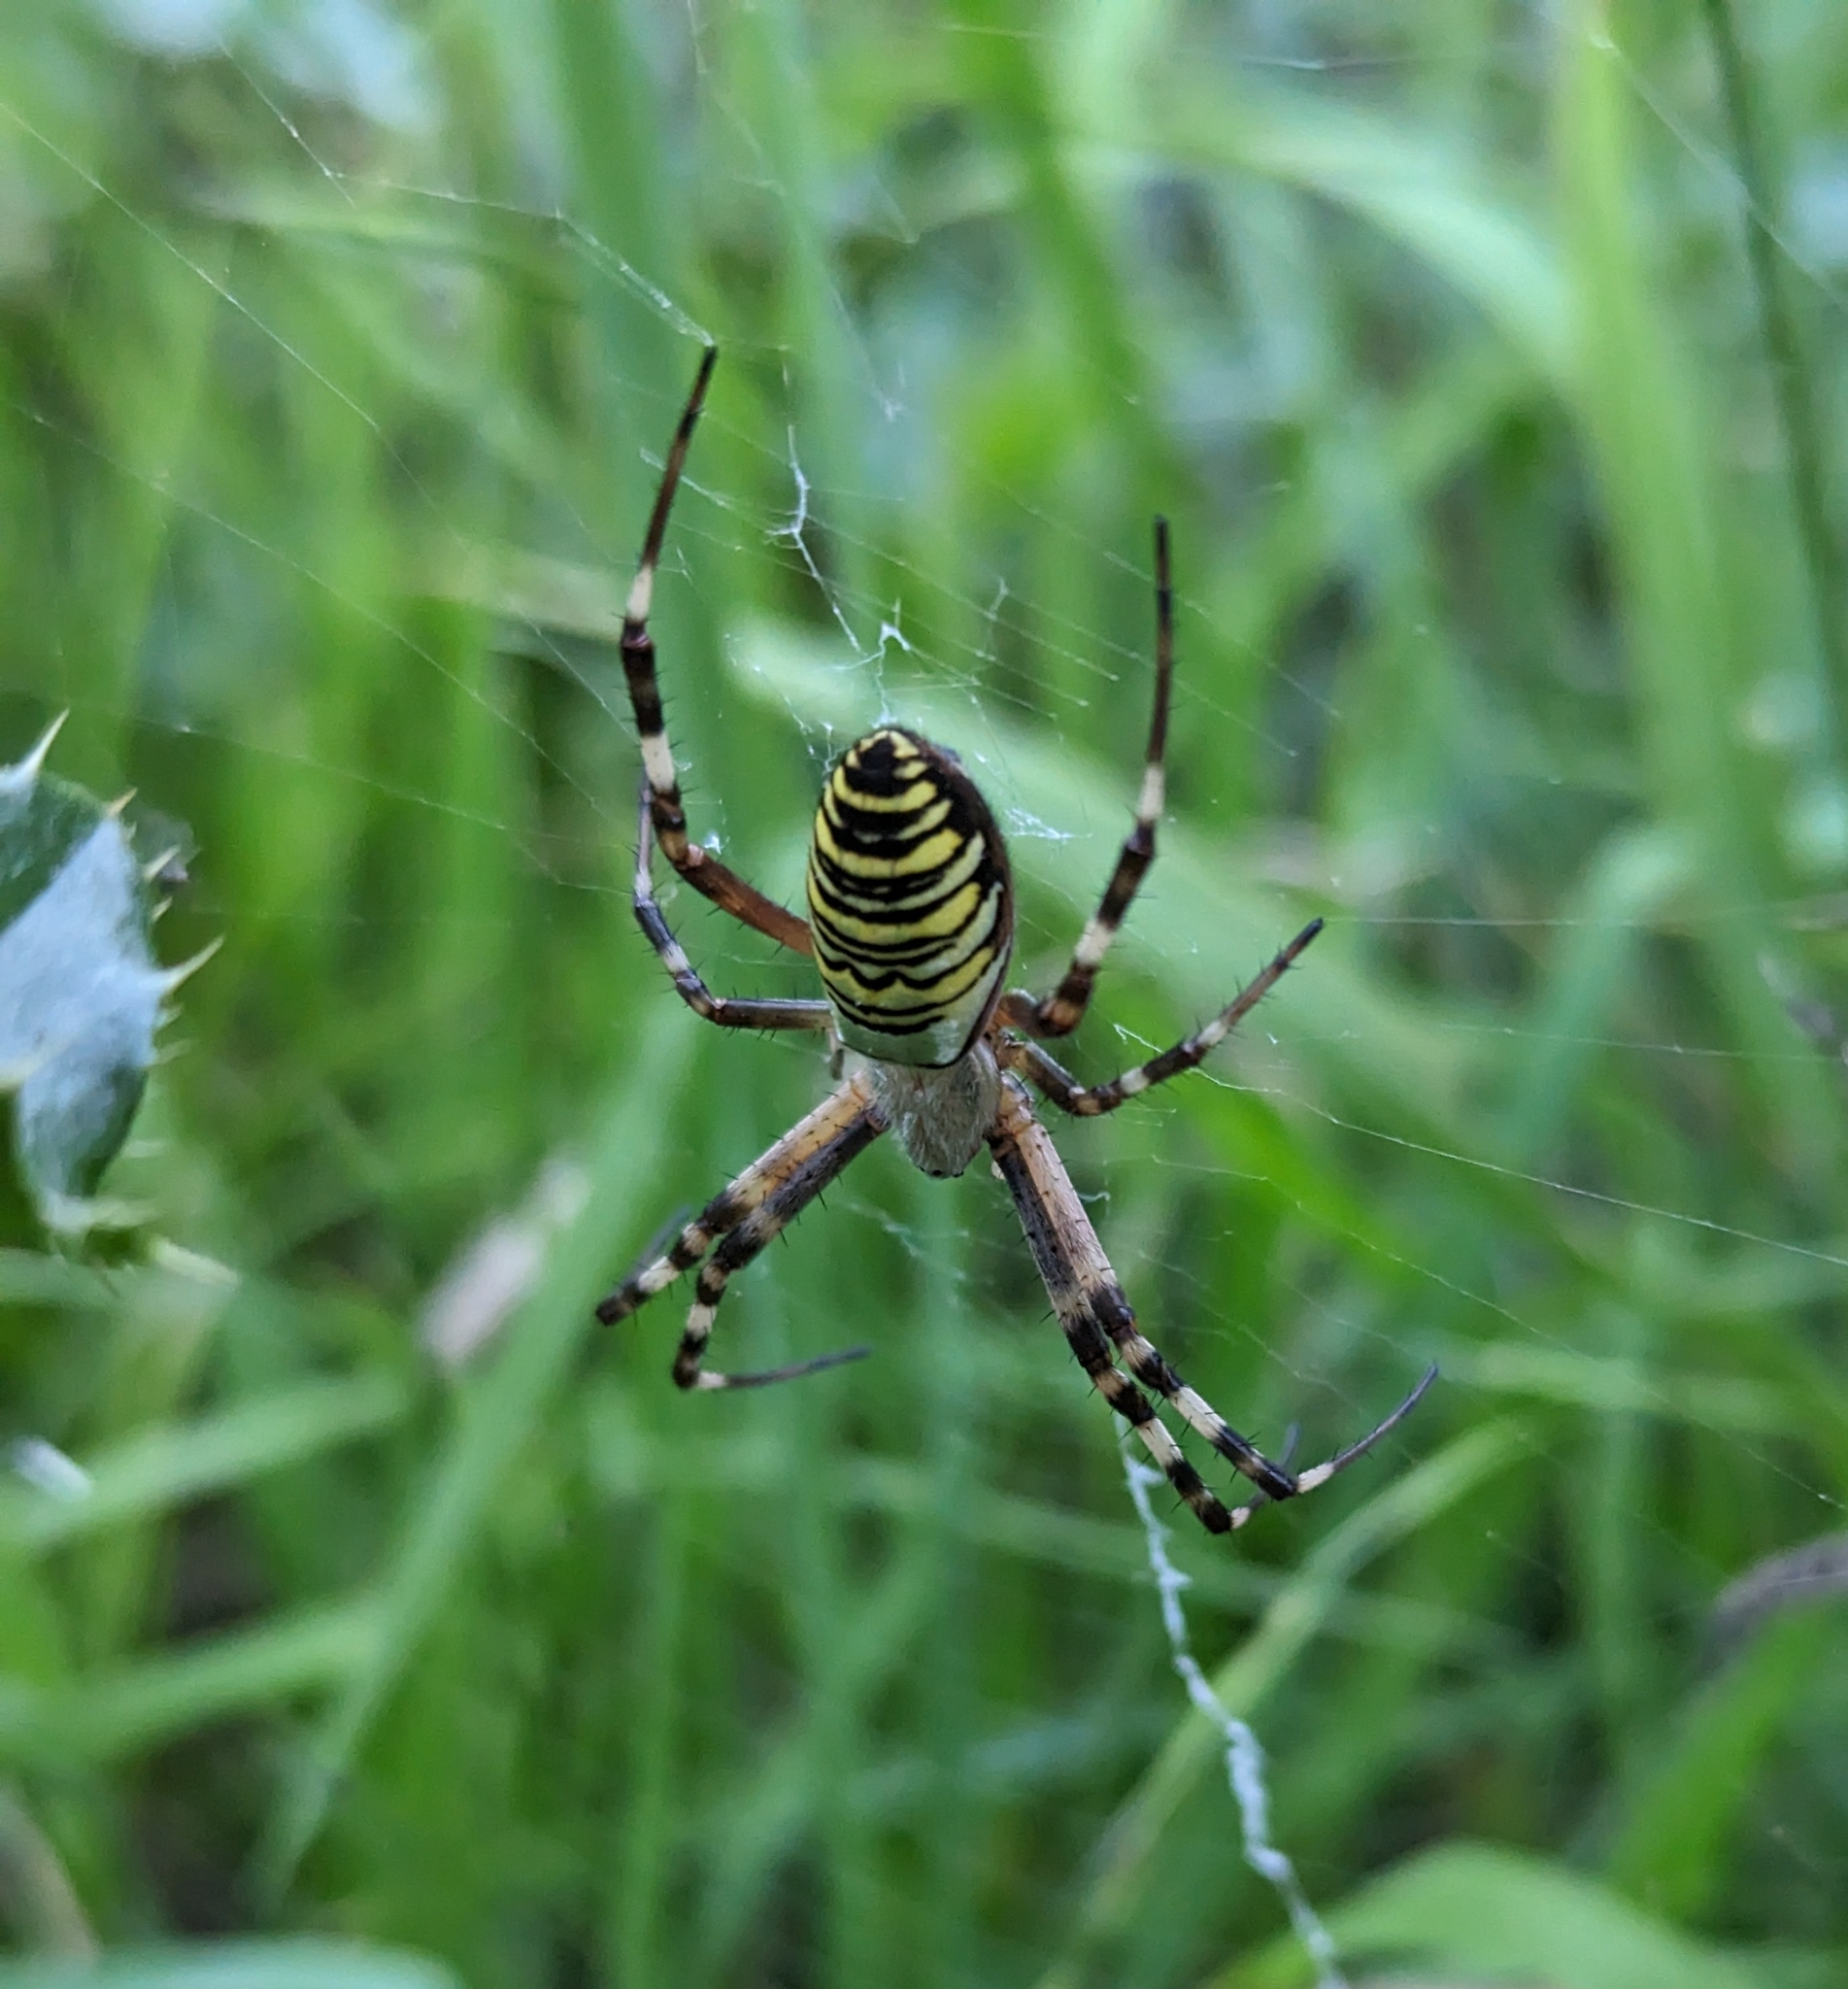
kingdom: Animalia
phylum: Arthropoda
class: Arachnida
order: Araneae
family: Araneidae
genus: Argiope
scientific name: Argiope bruennichi
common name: Wasp spider
